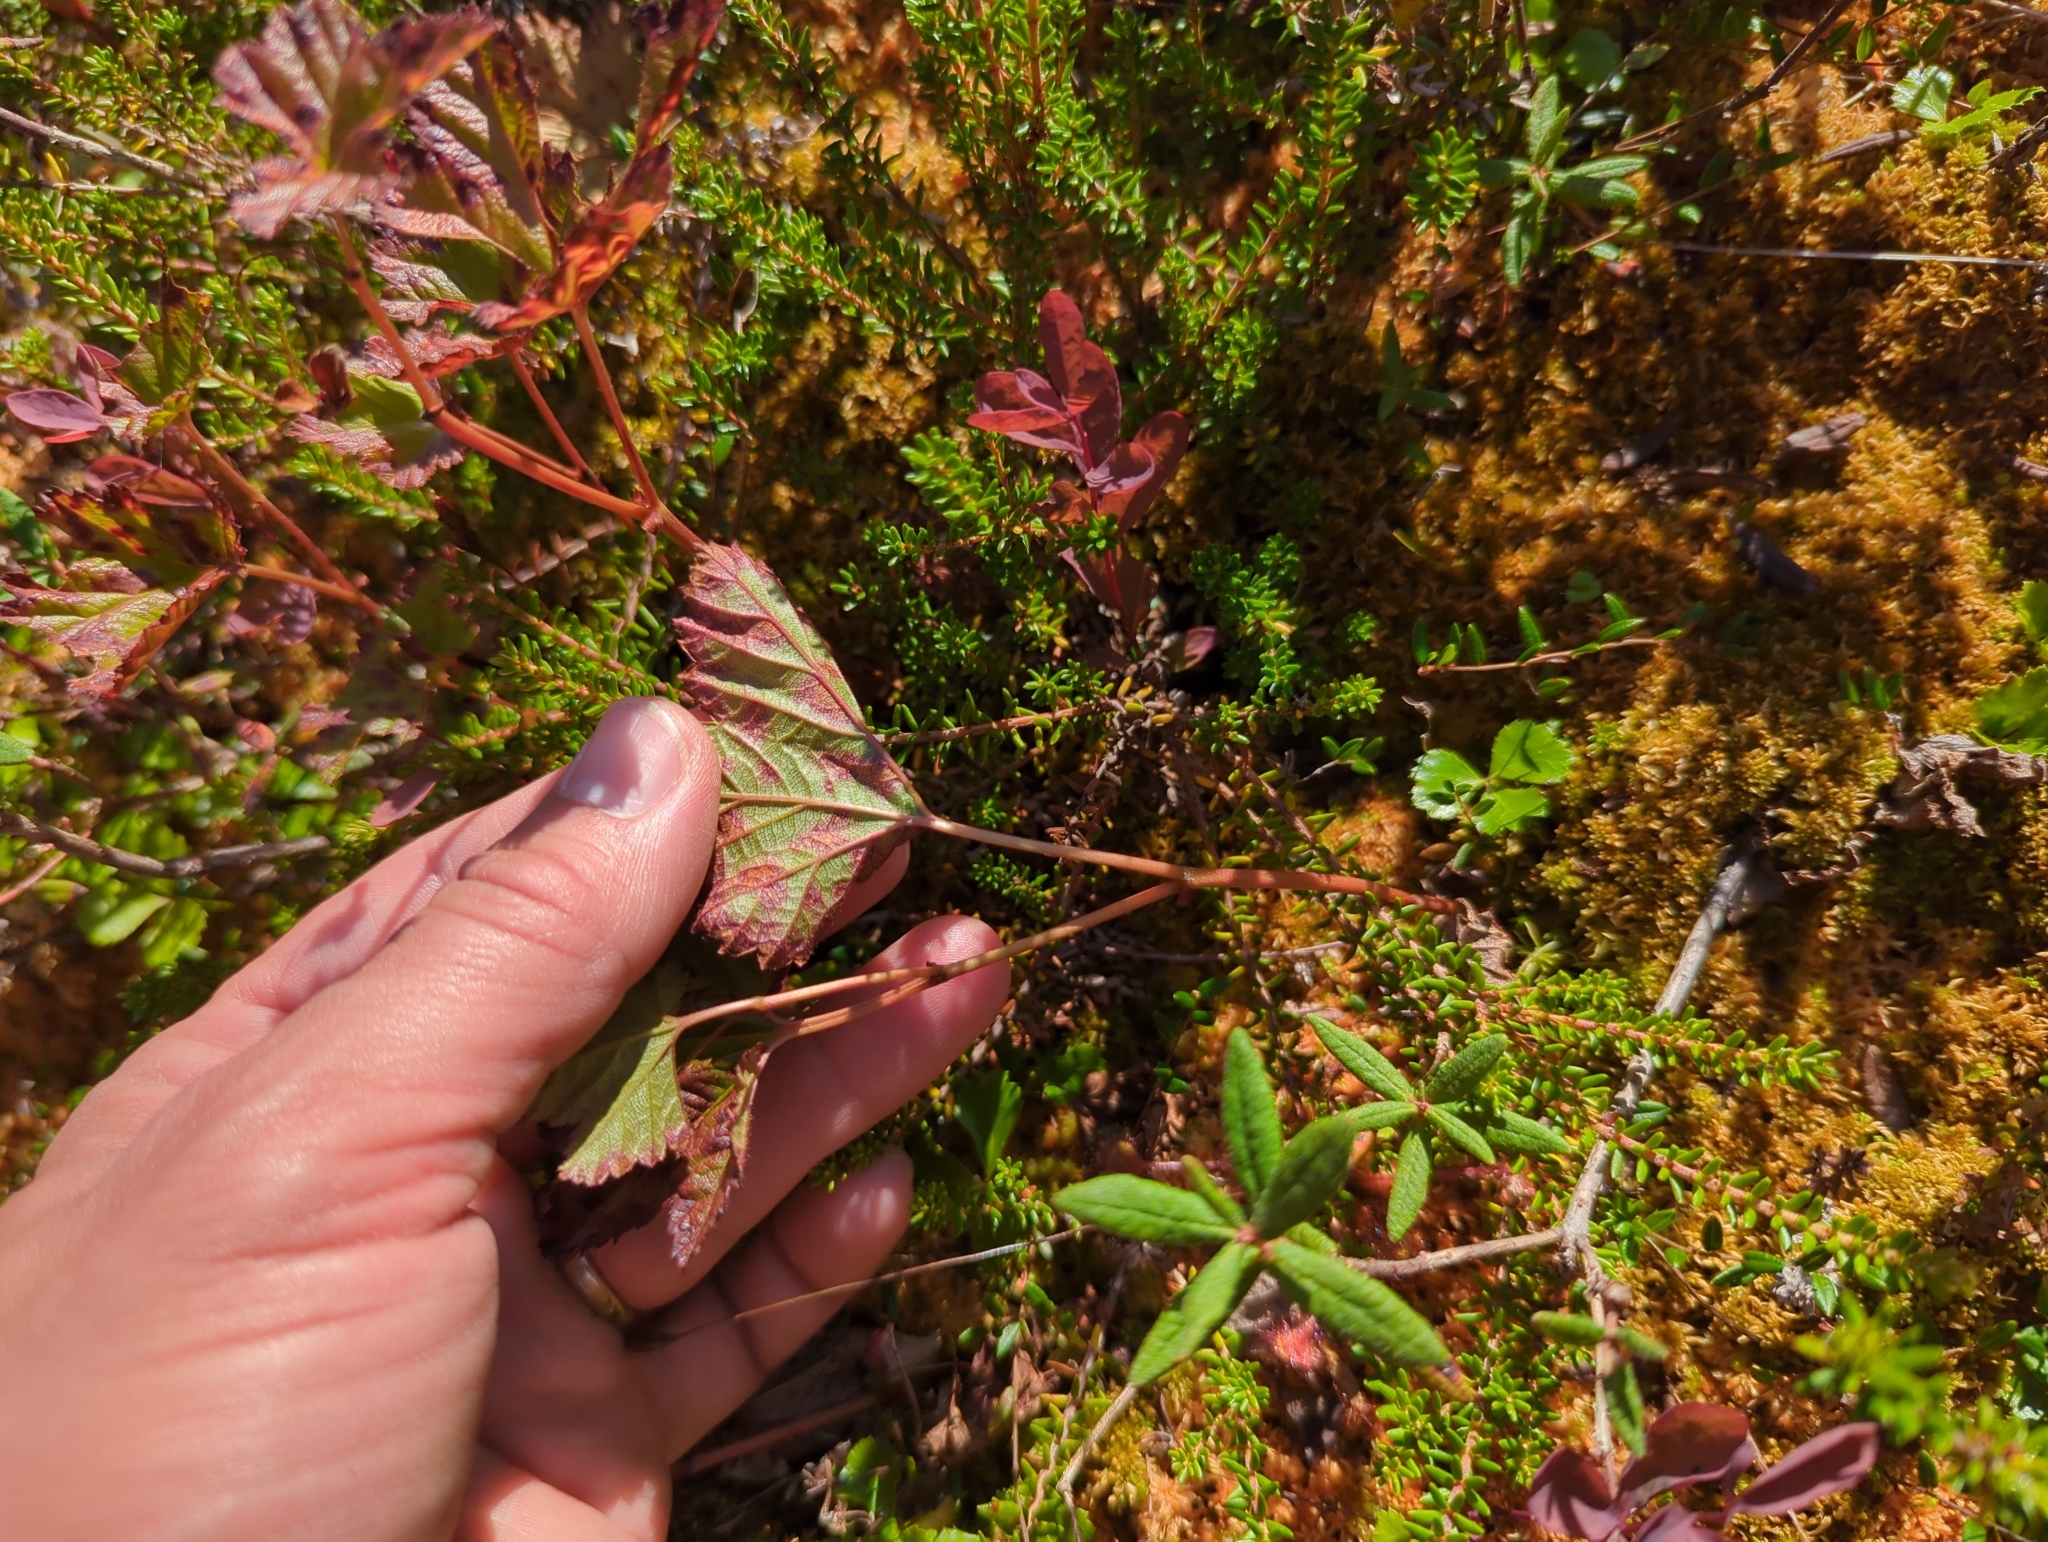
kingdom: Plantae
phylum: Tracheophyta
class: Magnoliopsida
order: Rosales
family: Rosaceae
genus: Rubus
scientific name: Rubus chamaemorus
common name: Cloudberry
